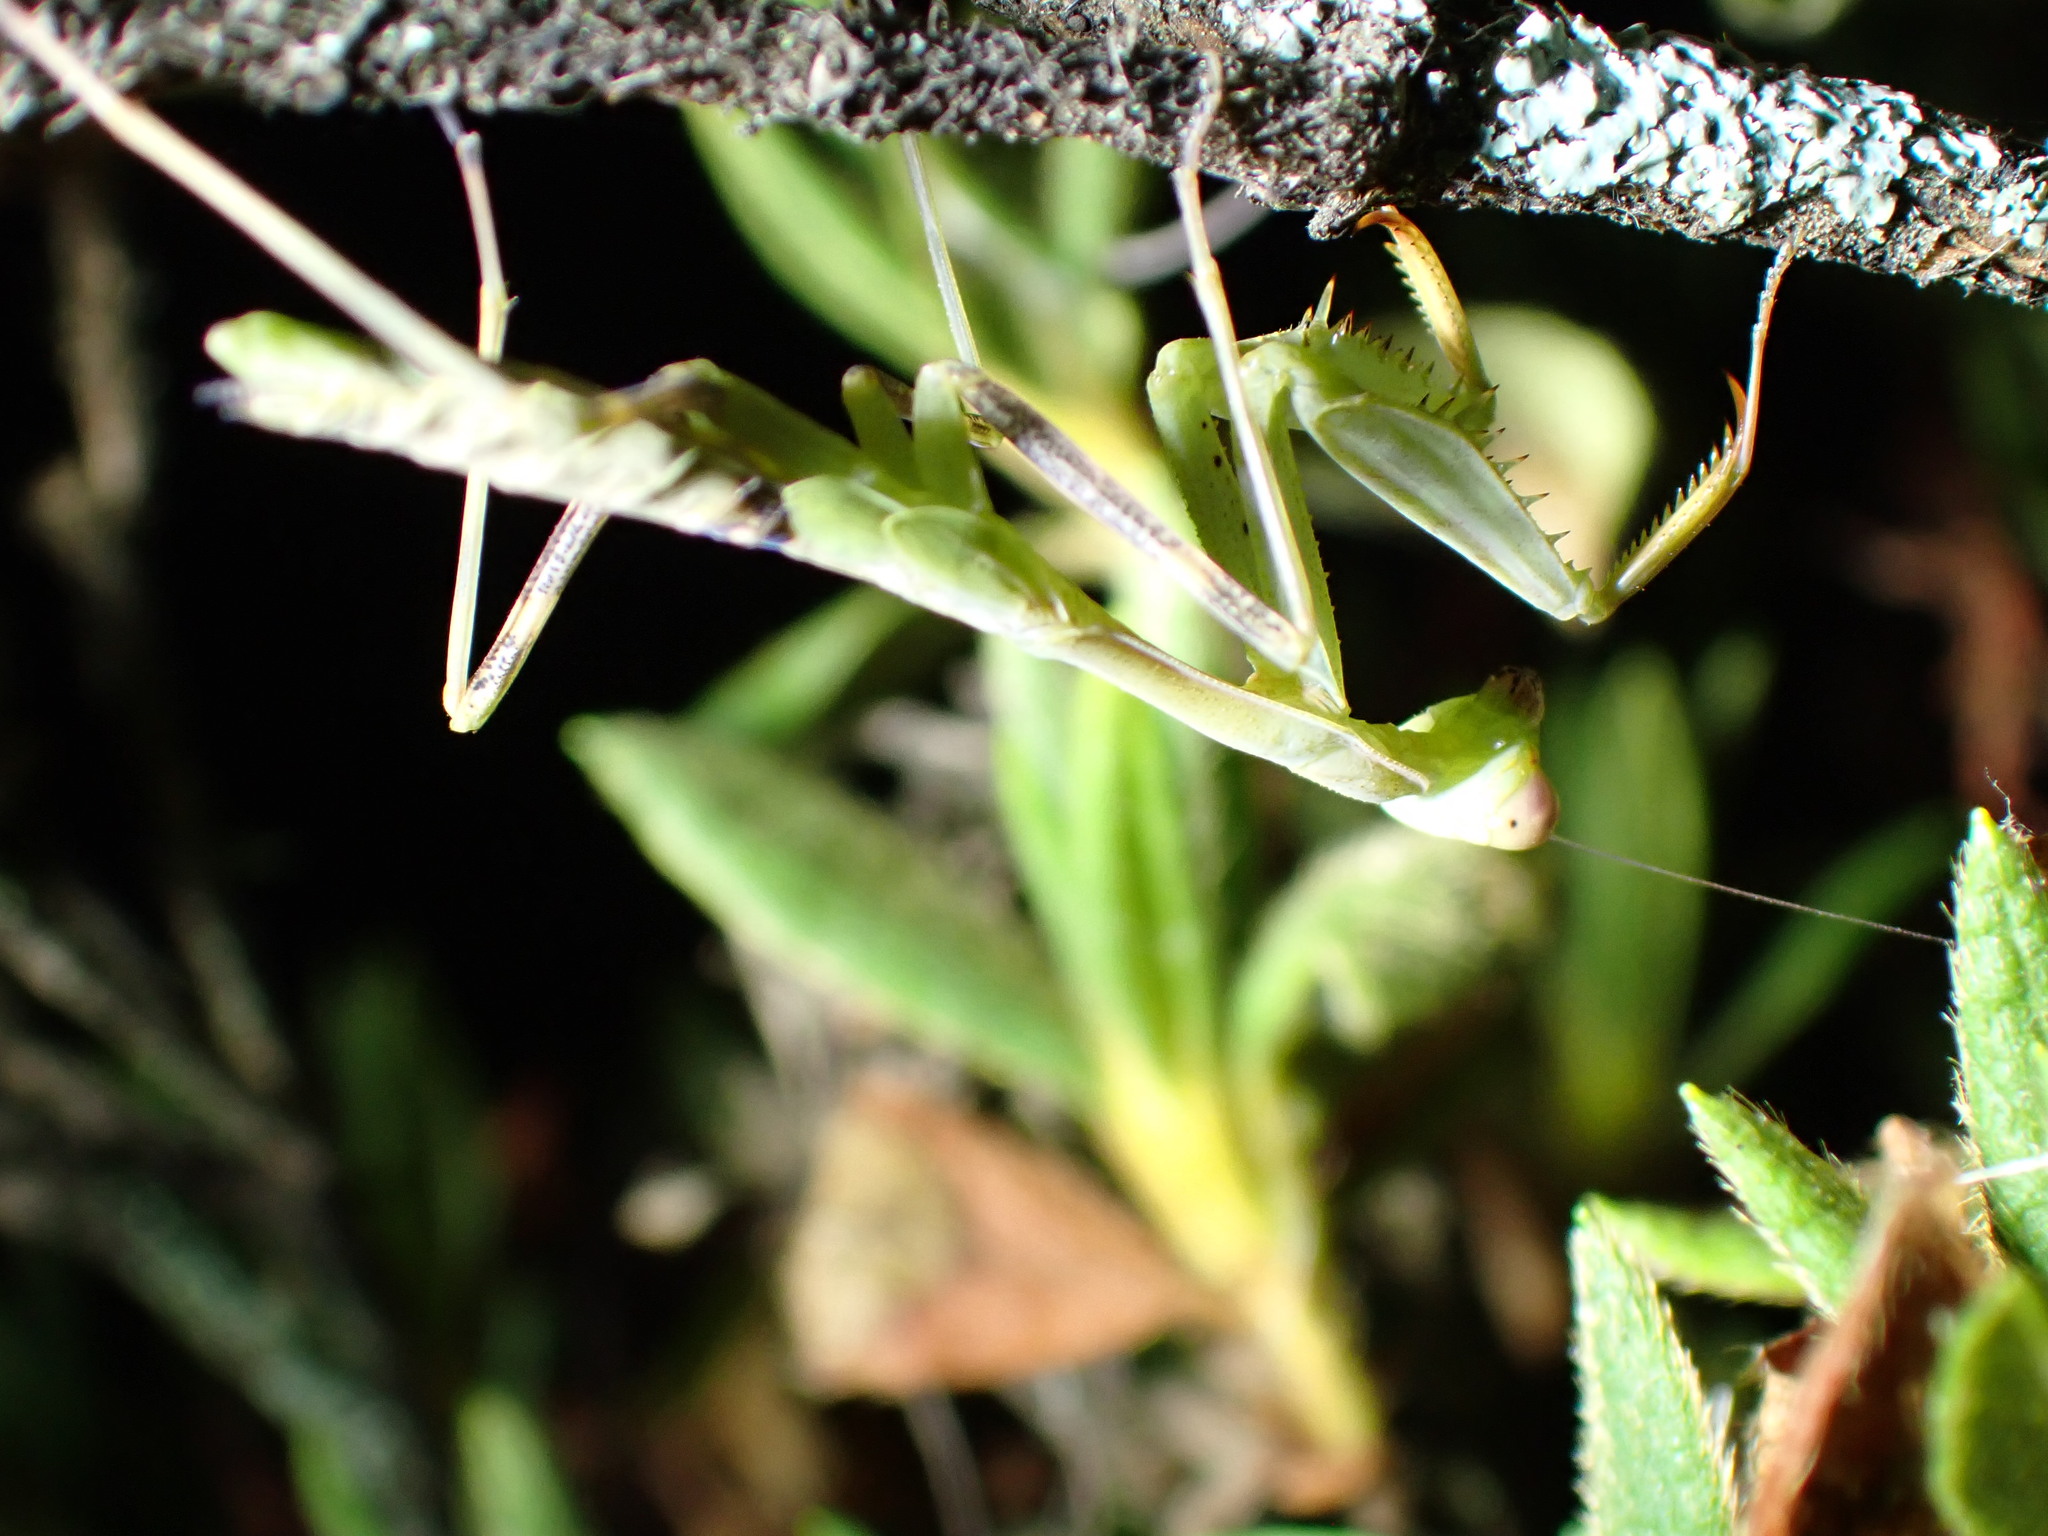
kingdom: Animalia
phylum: Arthropoda
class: Insecta
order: Mantodea
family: Miomantidae
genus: Miomantis
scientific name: Miomantis caffra
